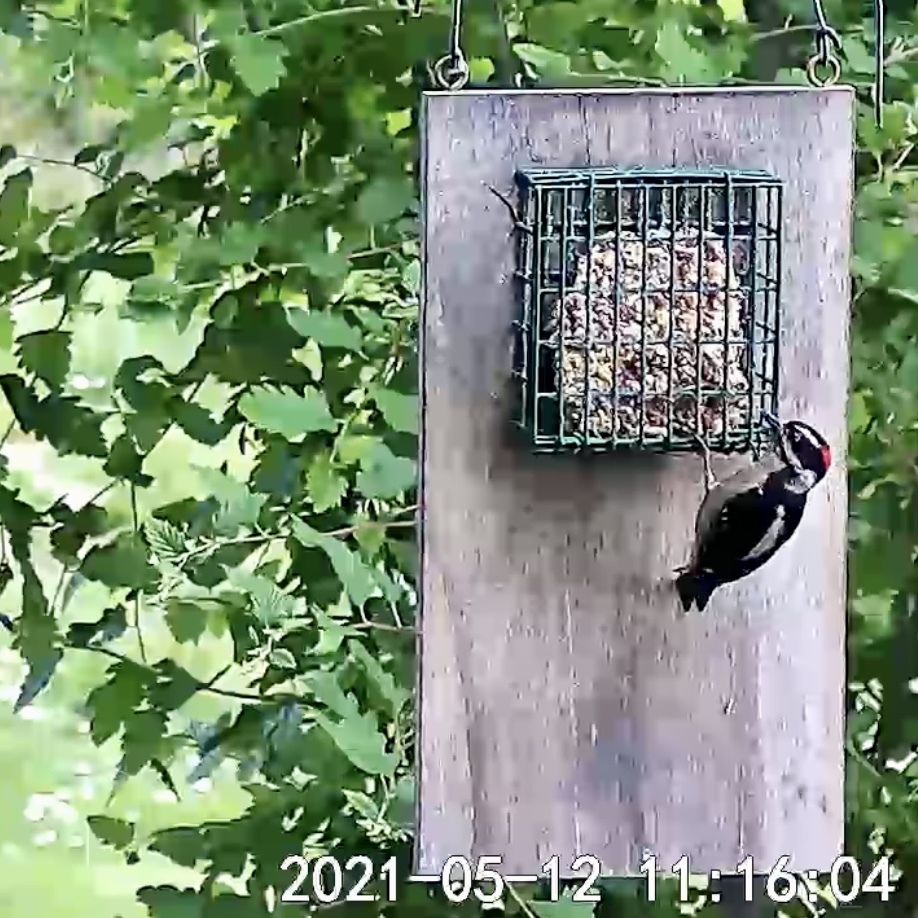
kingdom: Animalia
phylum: Chordata
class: Aves
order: Piciformes
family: Picidae
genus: Dryobates
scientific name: Dryobates pubescens
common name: Downy woodpecker
